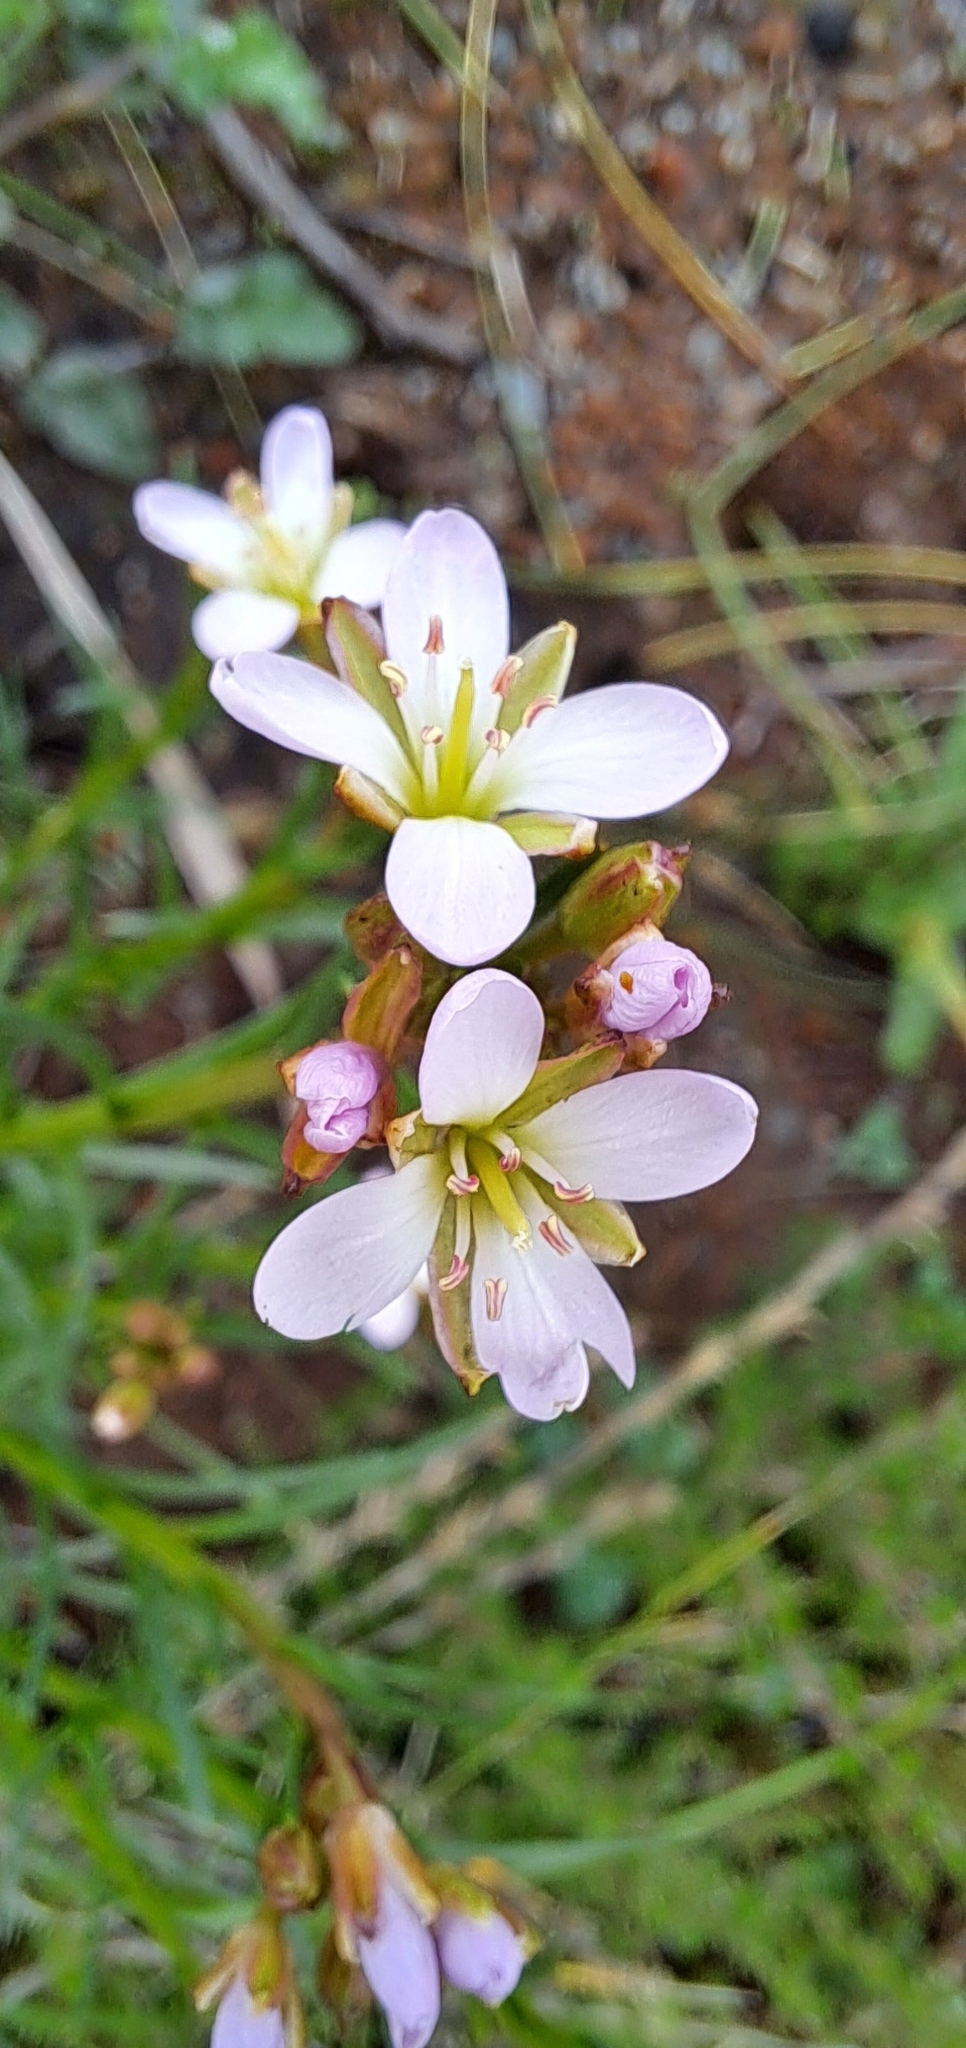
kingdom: Plantae
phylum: Tracheophyta
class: Magnoliopsida
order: Brassicales
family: Brassicaceae
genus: Heliophila
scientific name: Heliophila scoparia
